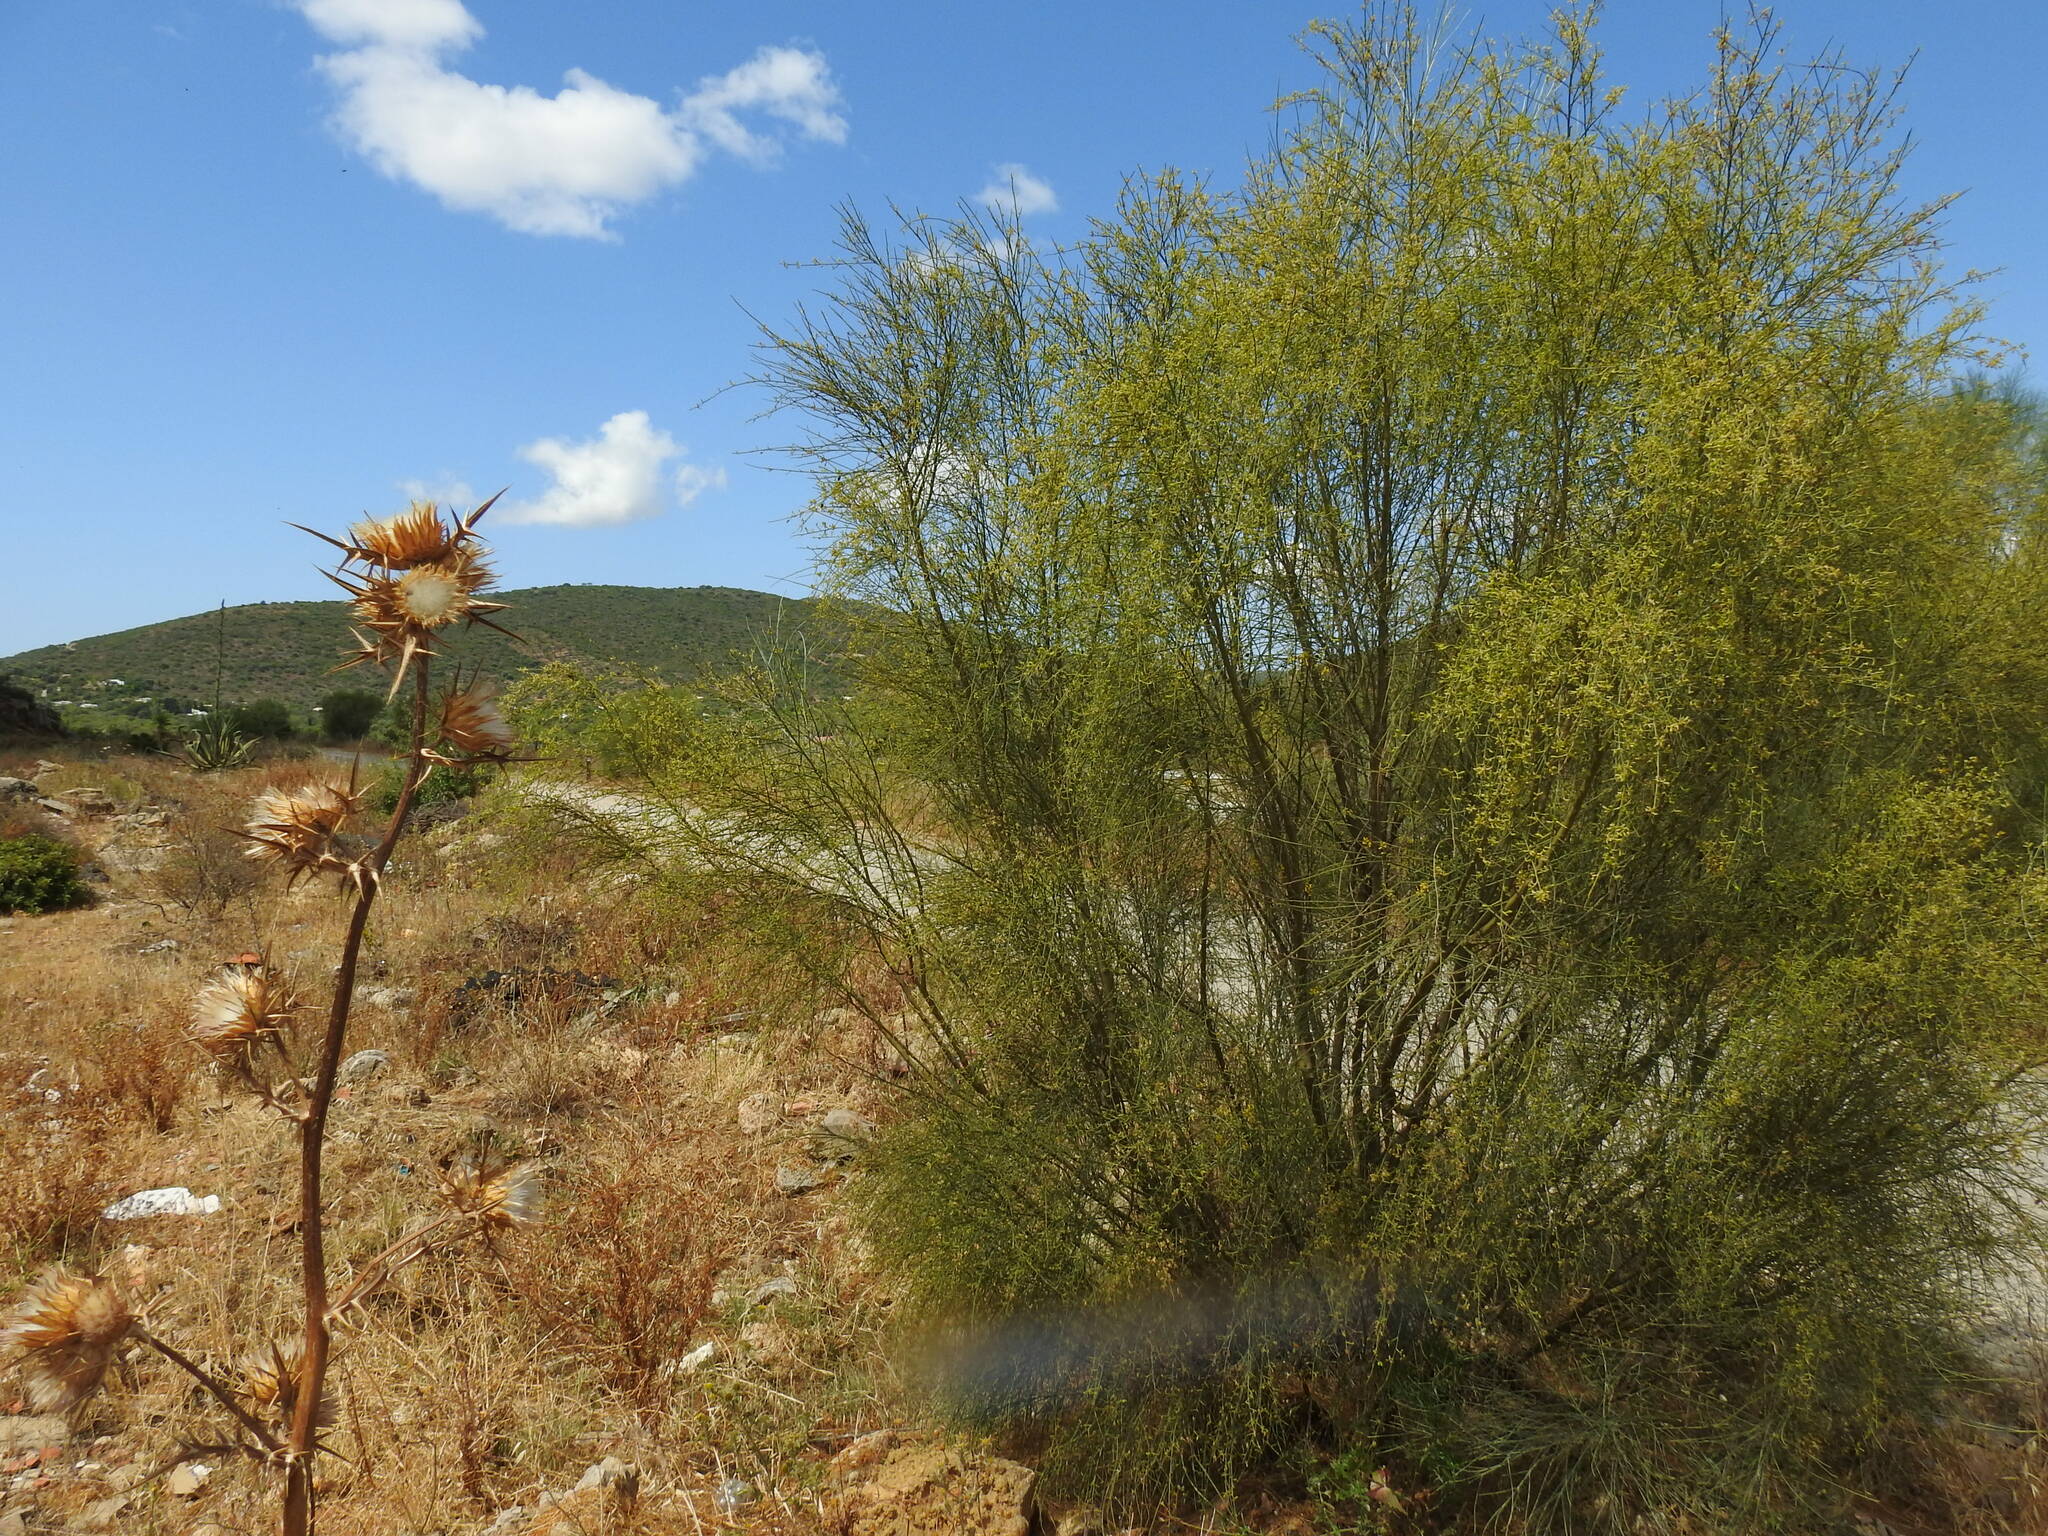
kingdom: Plantae
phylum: Tracheophyta
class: Magnoliopsida
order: Fabales
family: Fabaceae
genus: Retama
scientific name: Retama sphaerocarpa
